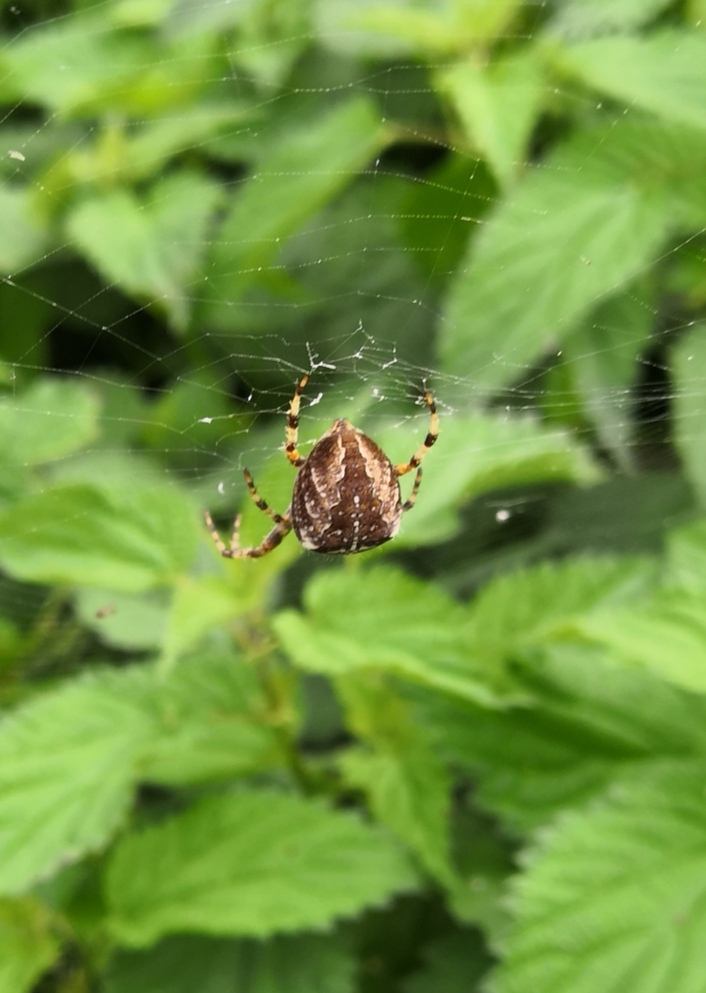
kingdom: Animalia
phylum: Arthropoda
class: Arachnida
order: Araneae
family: Araneidae
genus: Araneus
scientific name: Araneus diadematus
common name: Cross orbweaver
